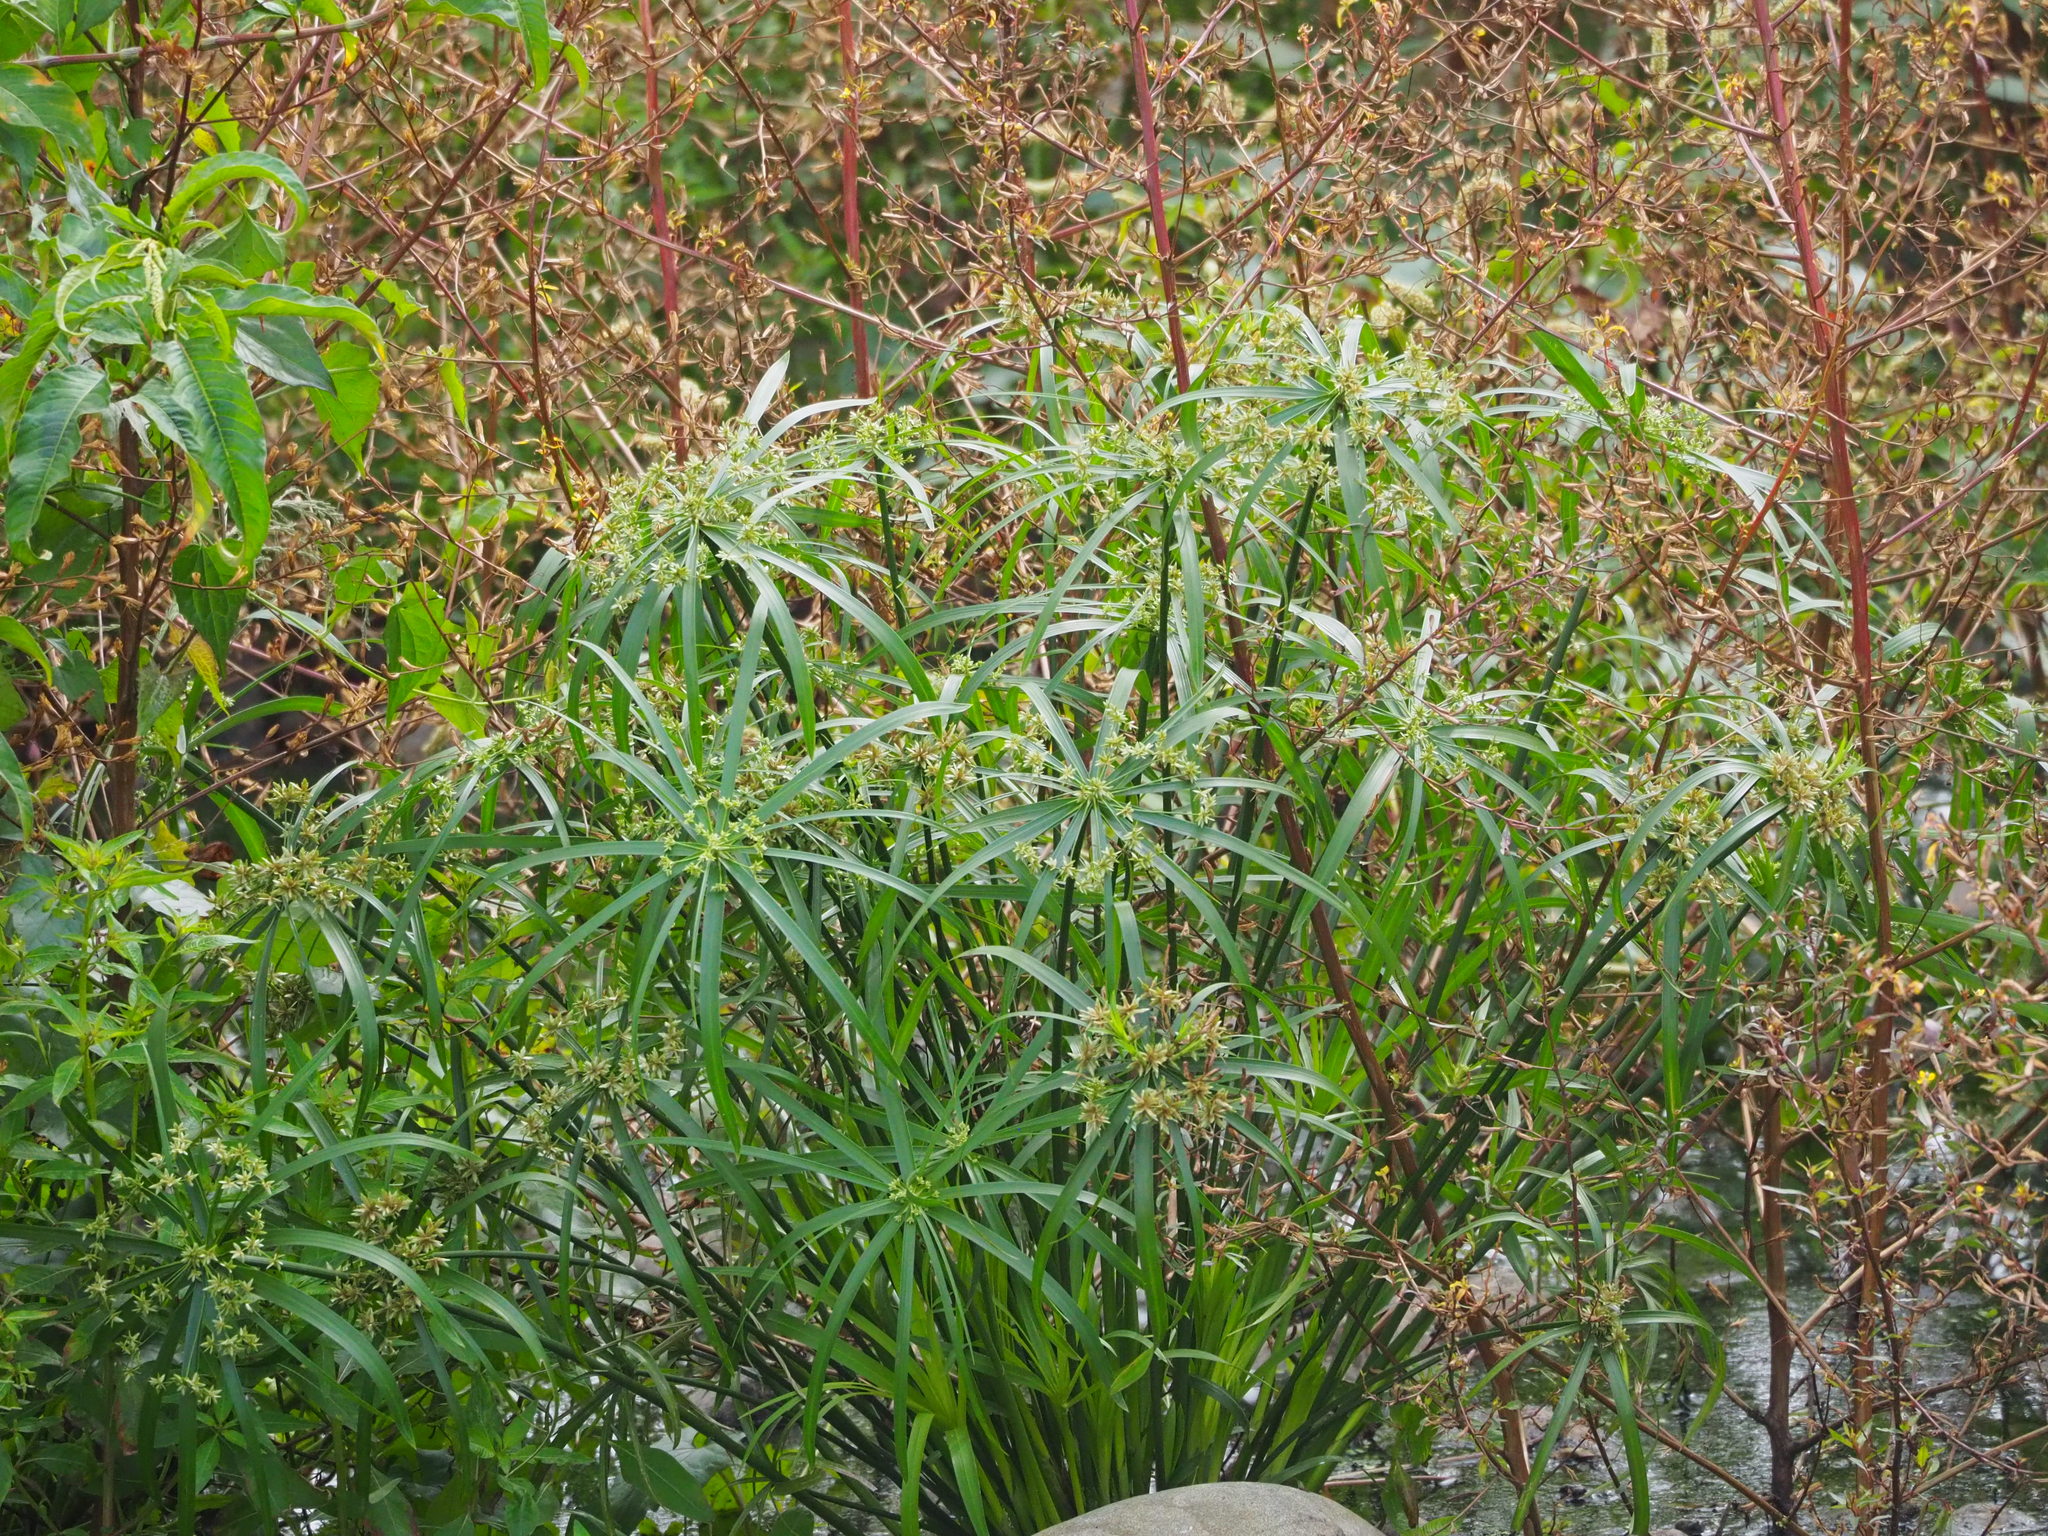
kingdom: Plantae
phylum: Tracheophyta
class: Liliopsida
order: Poales
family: Cyperaceae
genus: Cyperus
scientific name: Cyperus alternifolius
